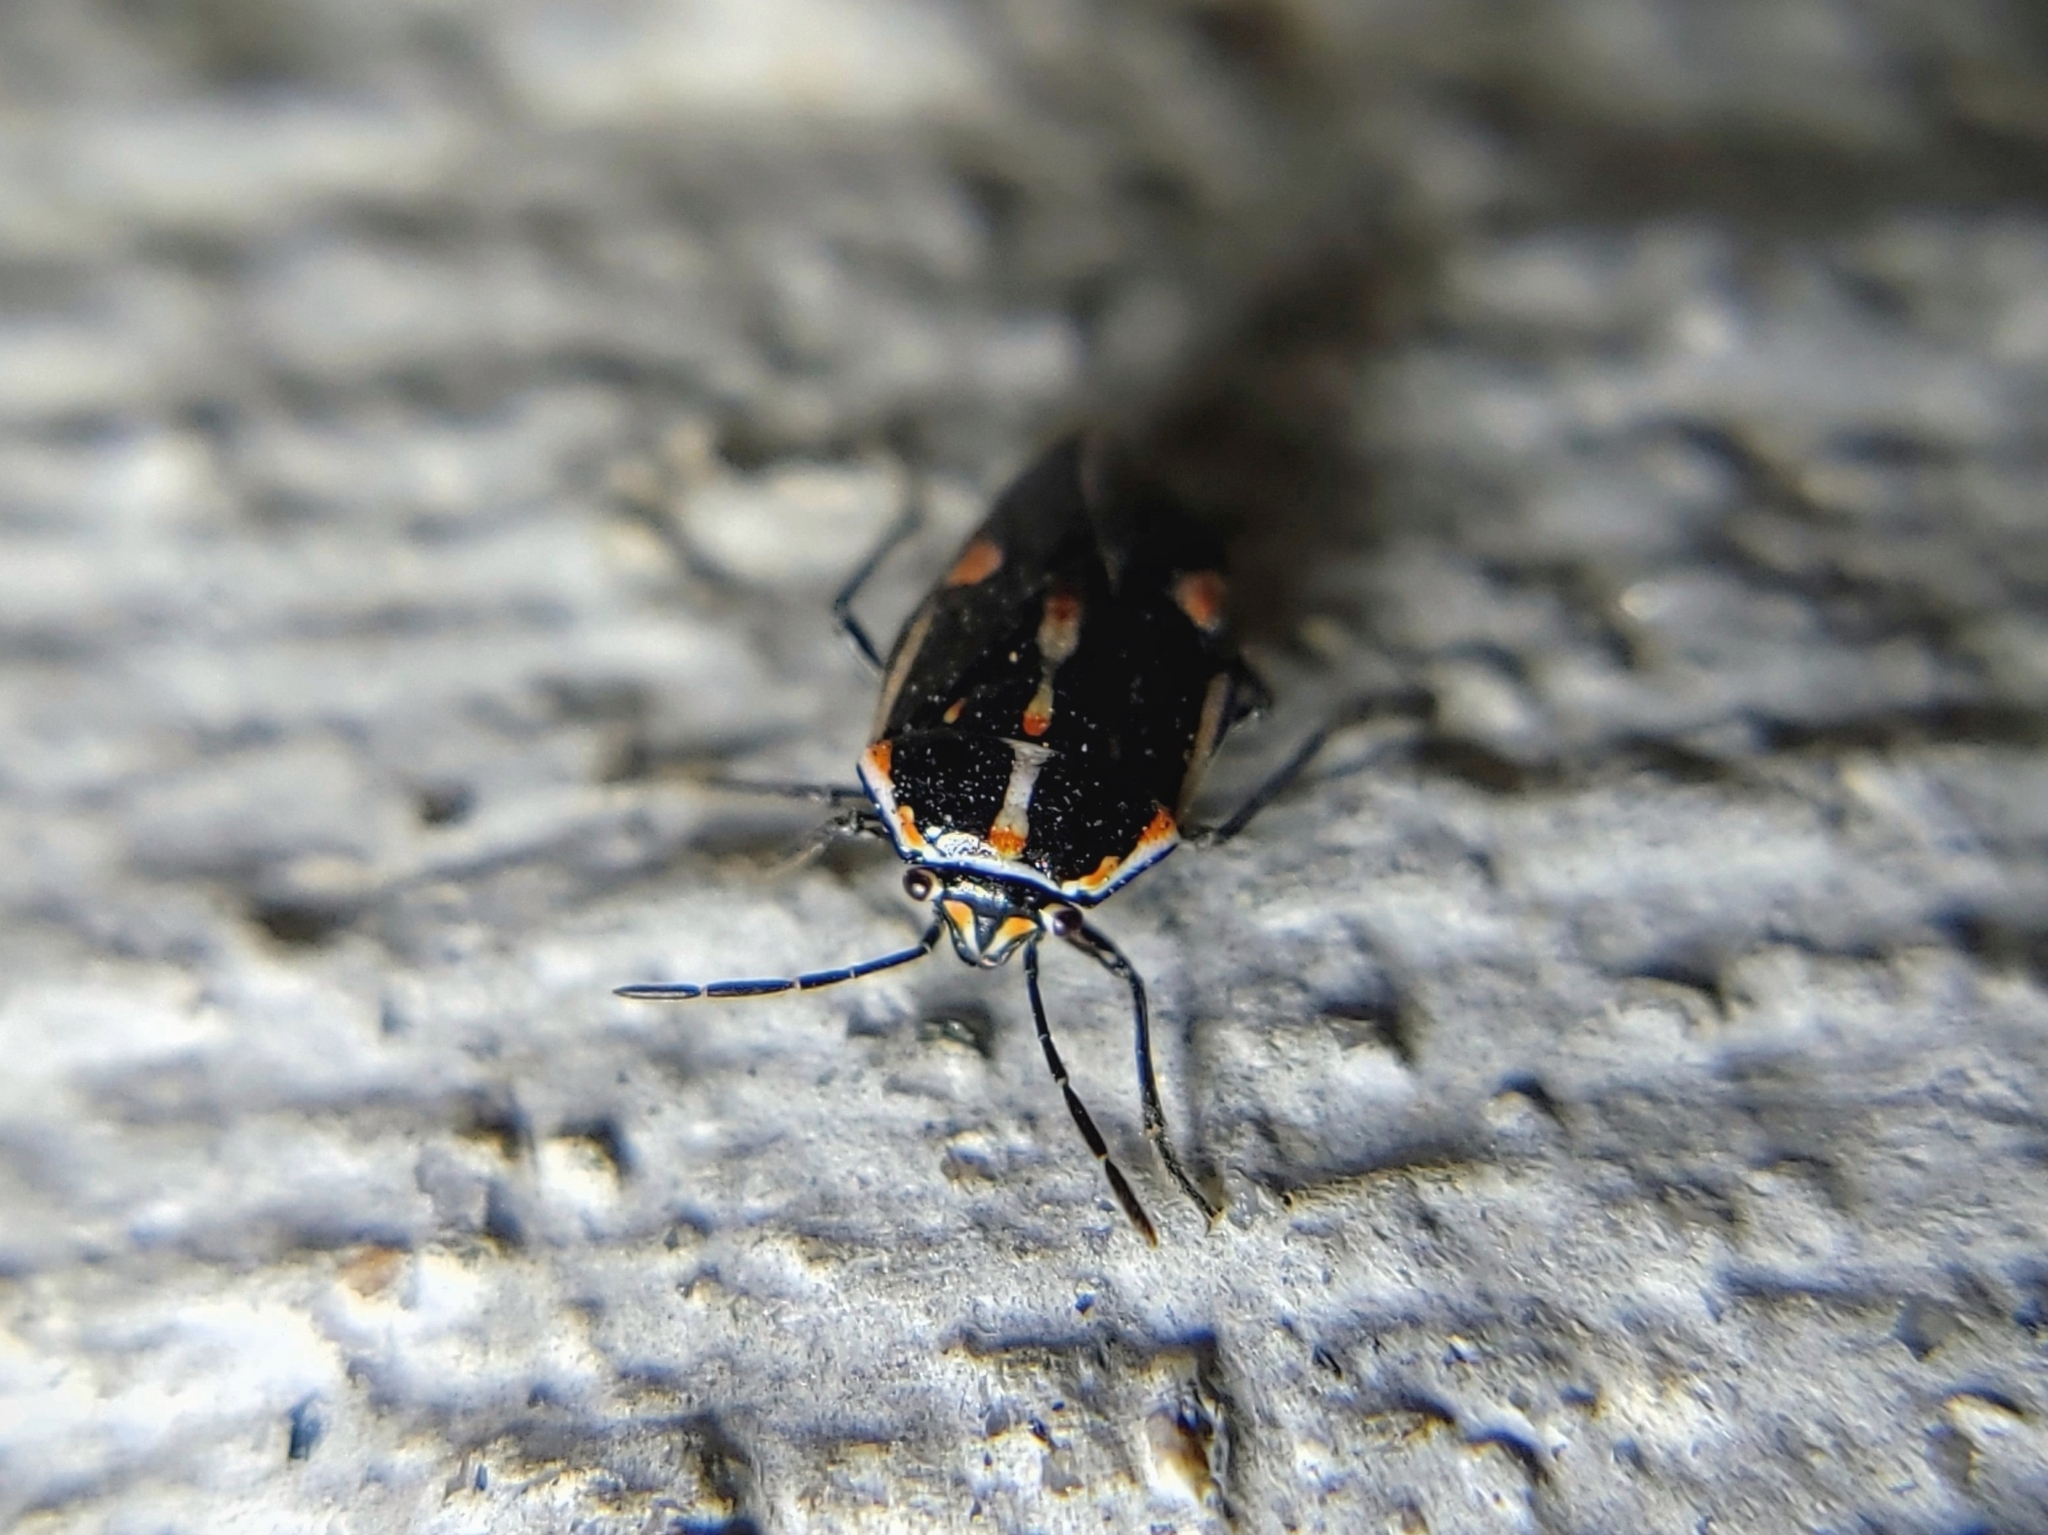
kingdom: Animalia
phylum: Arthropoda
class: Insecta
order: Hemiptera
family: Pentatomidae
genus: Bagrada
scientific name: Bagrada hilaris
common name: Bagrada bug
